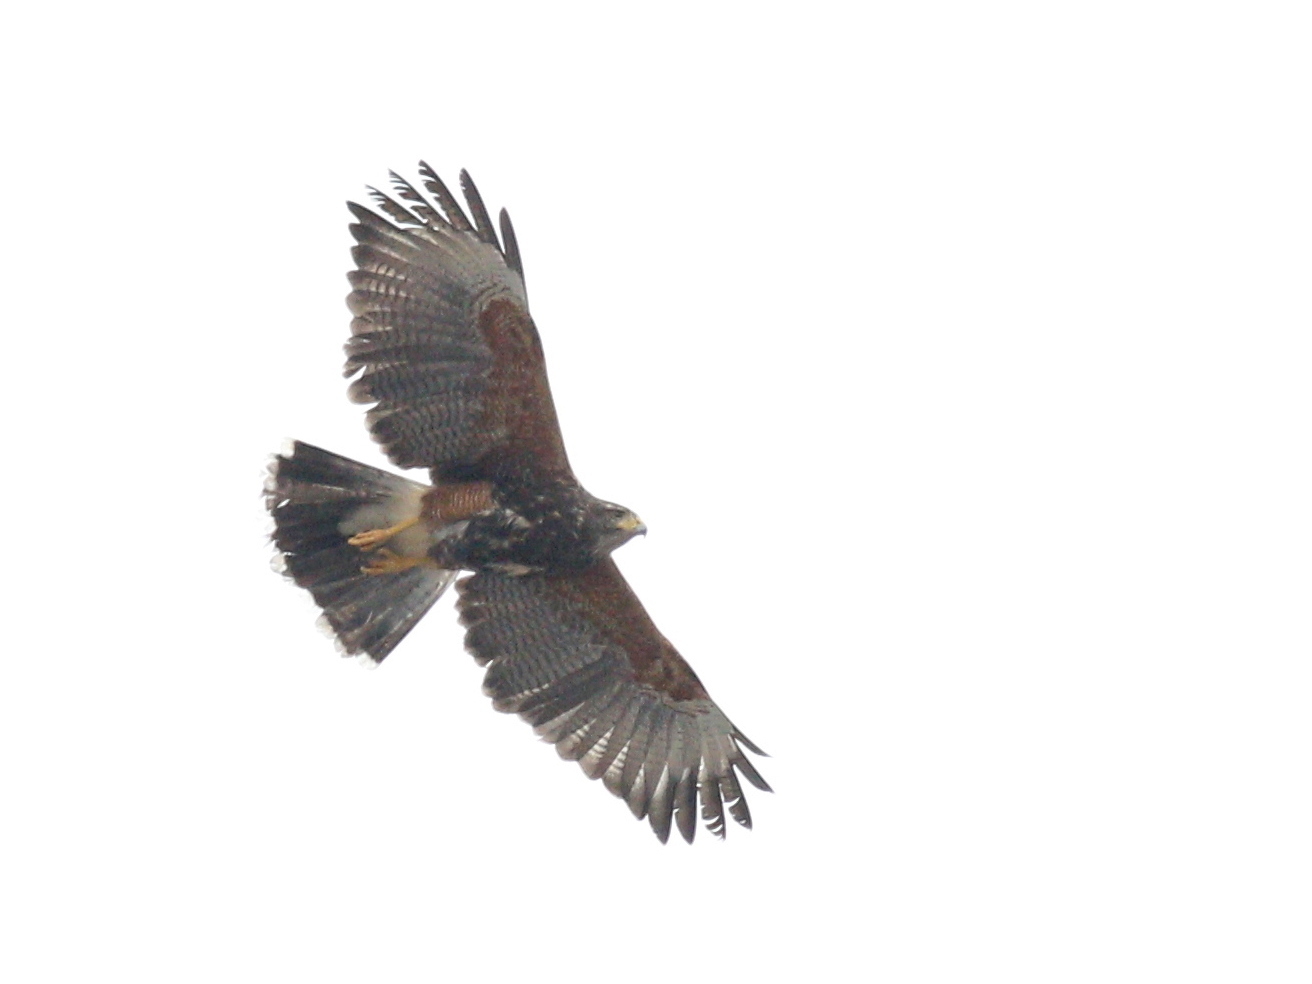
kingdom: Animalia
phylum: Chordata
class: Aves
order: Accipitriformes
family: Accipitridae
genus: Parabuteo
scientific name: Parabuteo unicinctus
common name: Harris's hawk
